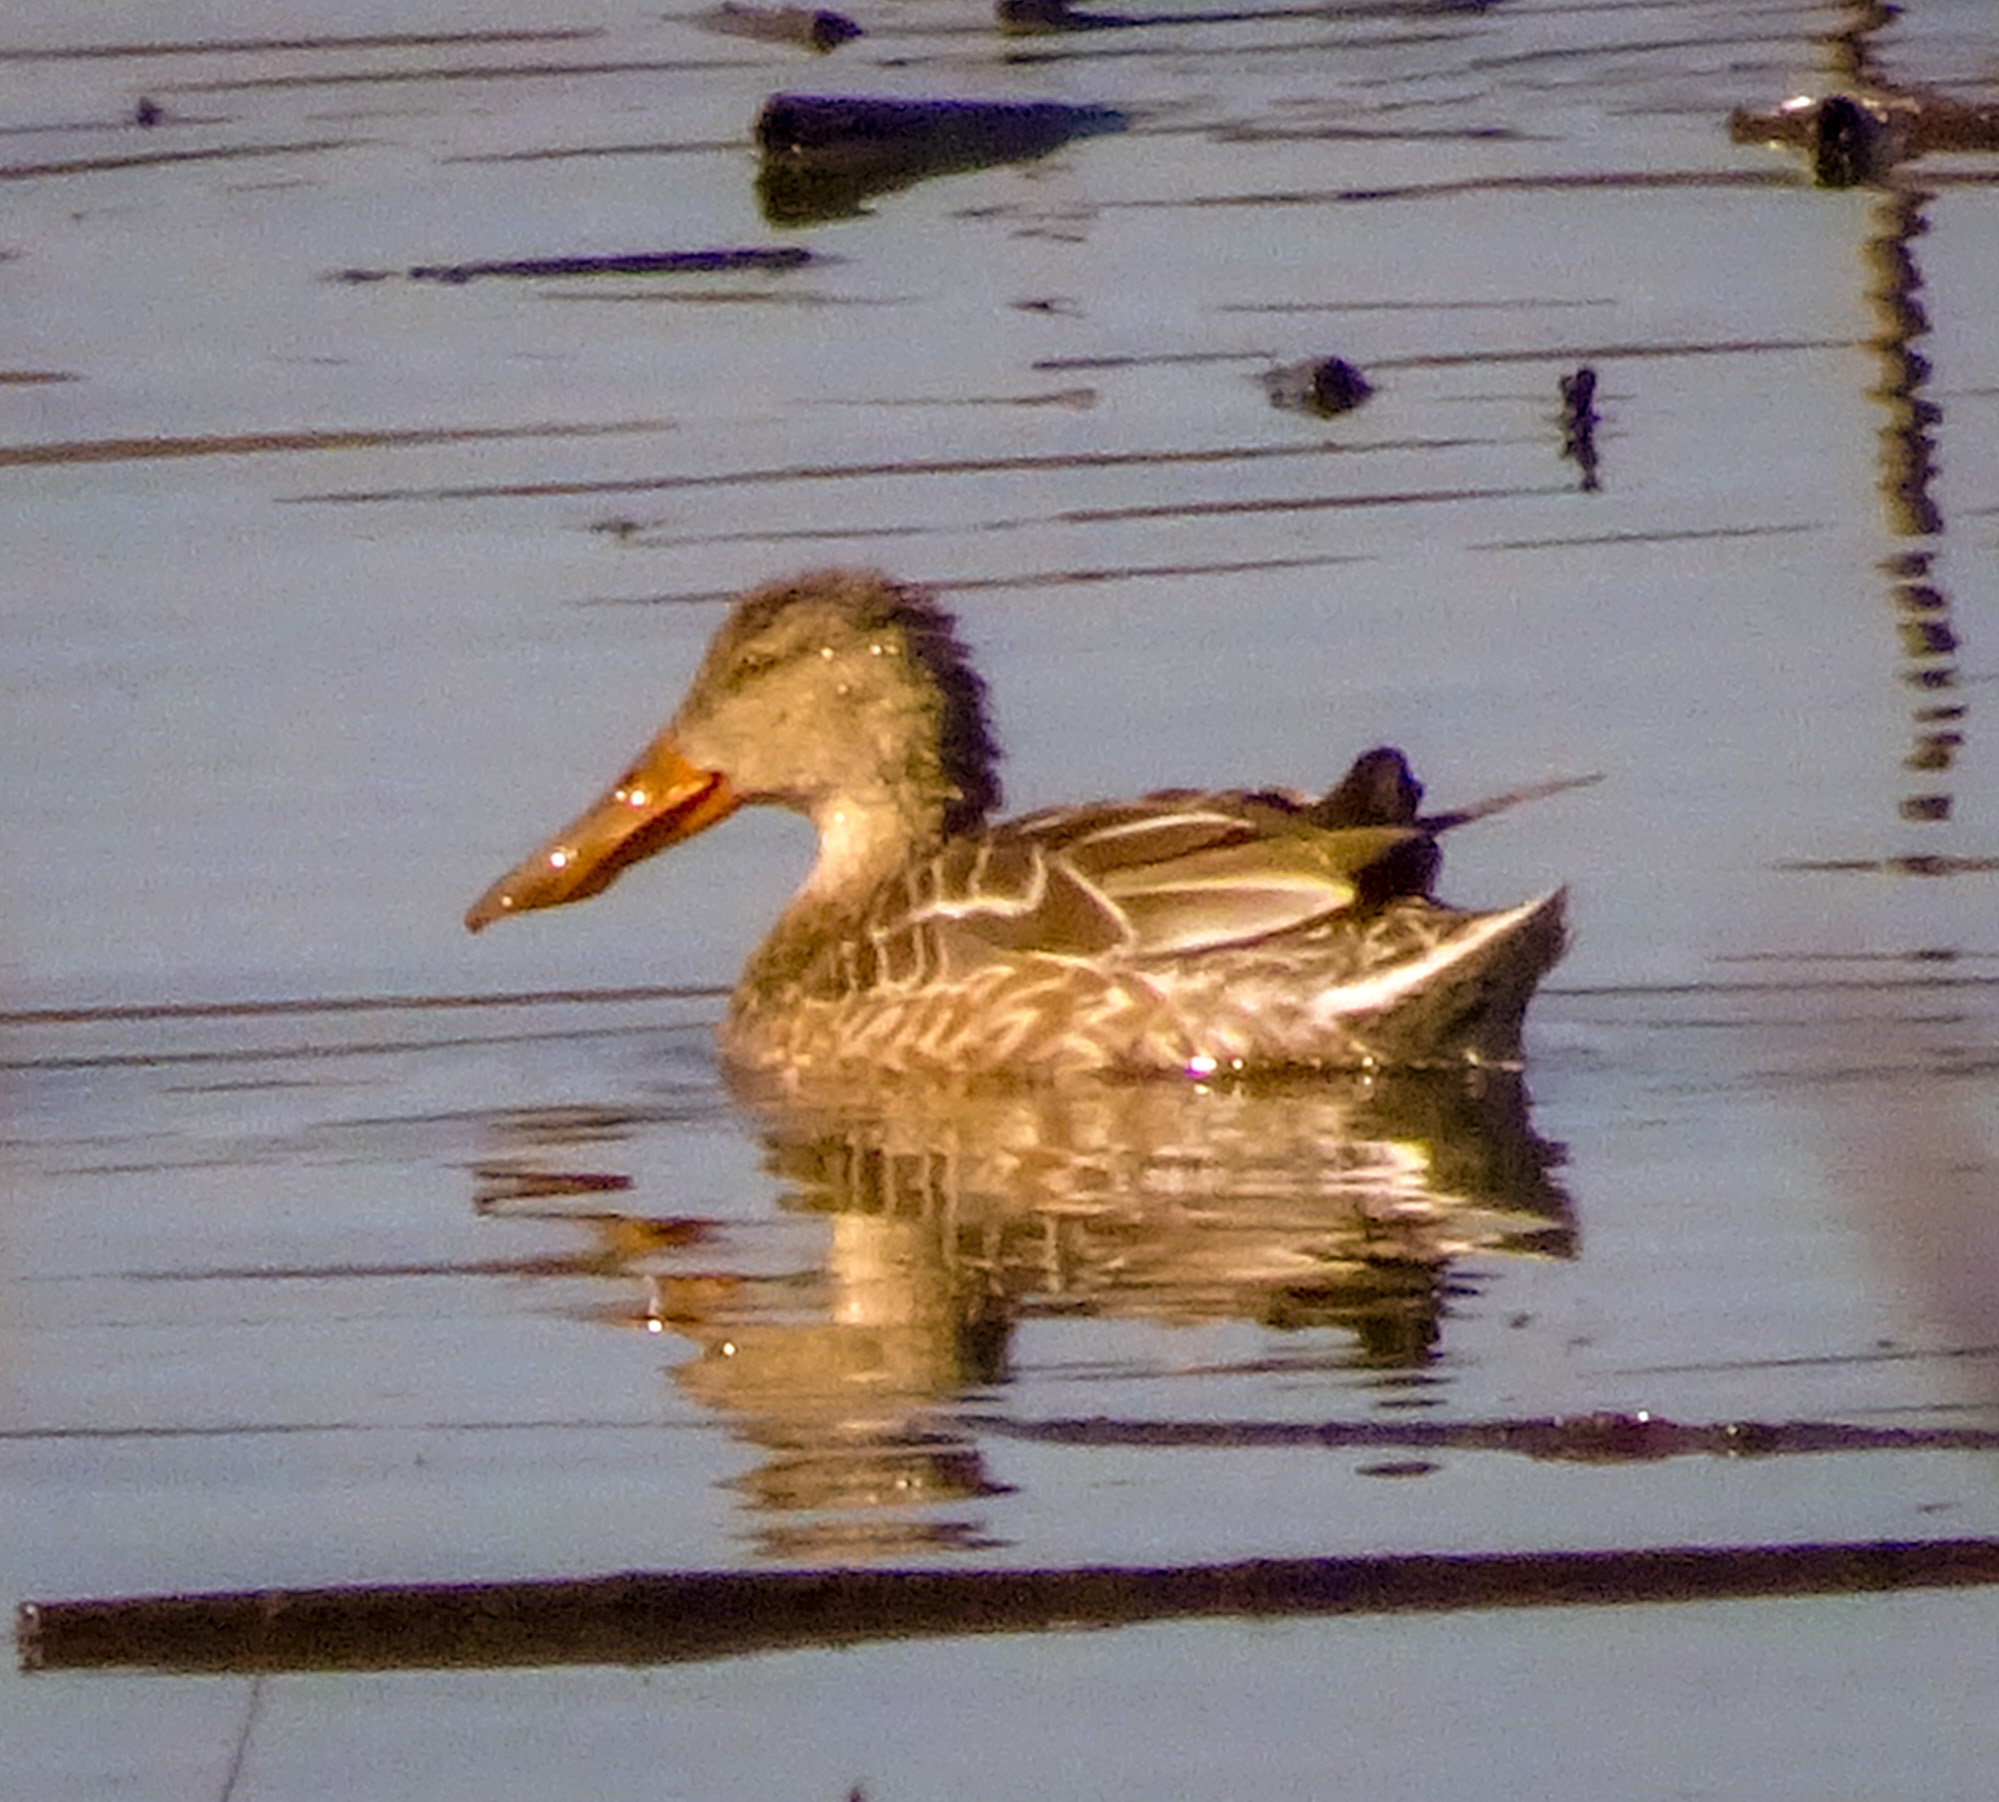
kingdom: Animalia
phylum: Chordata
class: Aves
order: Anseriformes
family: Anatidae
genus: Spatula
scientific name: Spatula clypeata
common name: Northern shoveler
